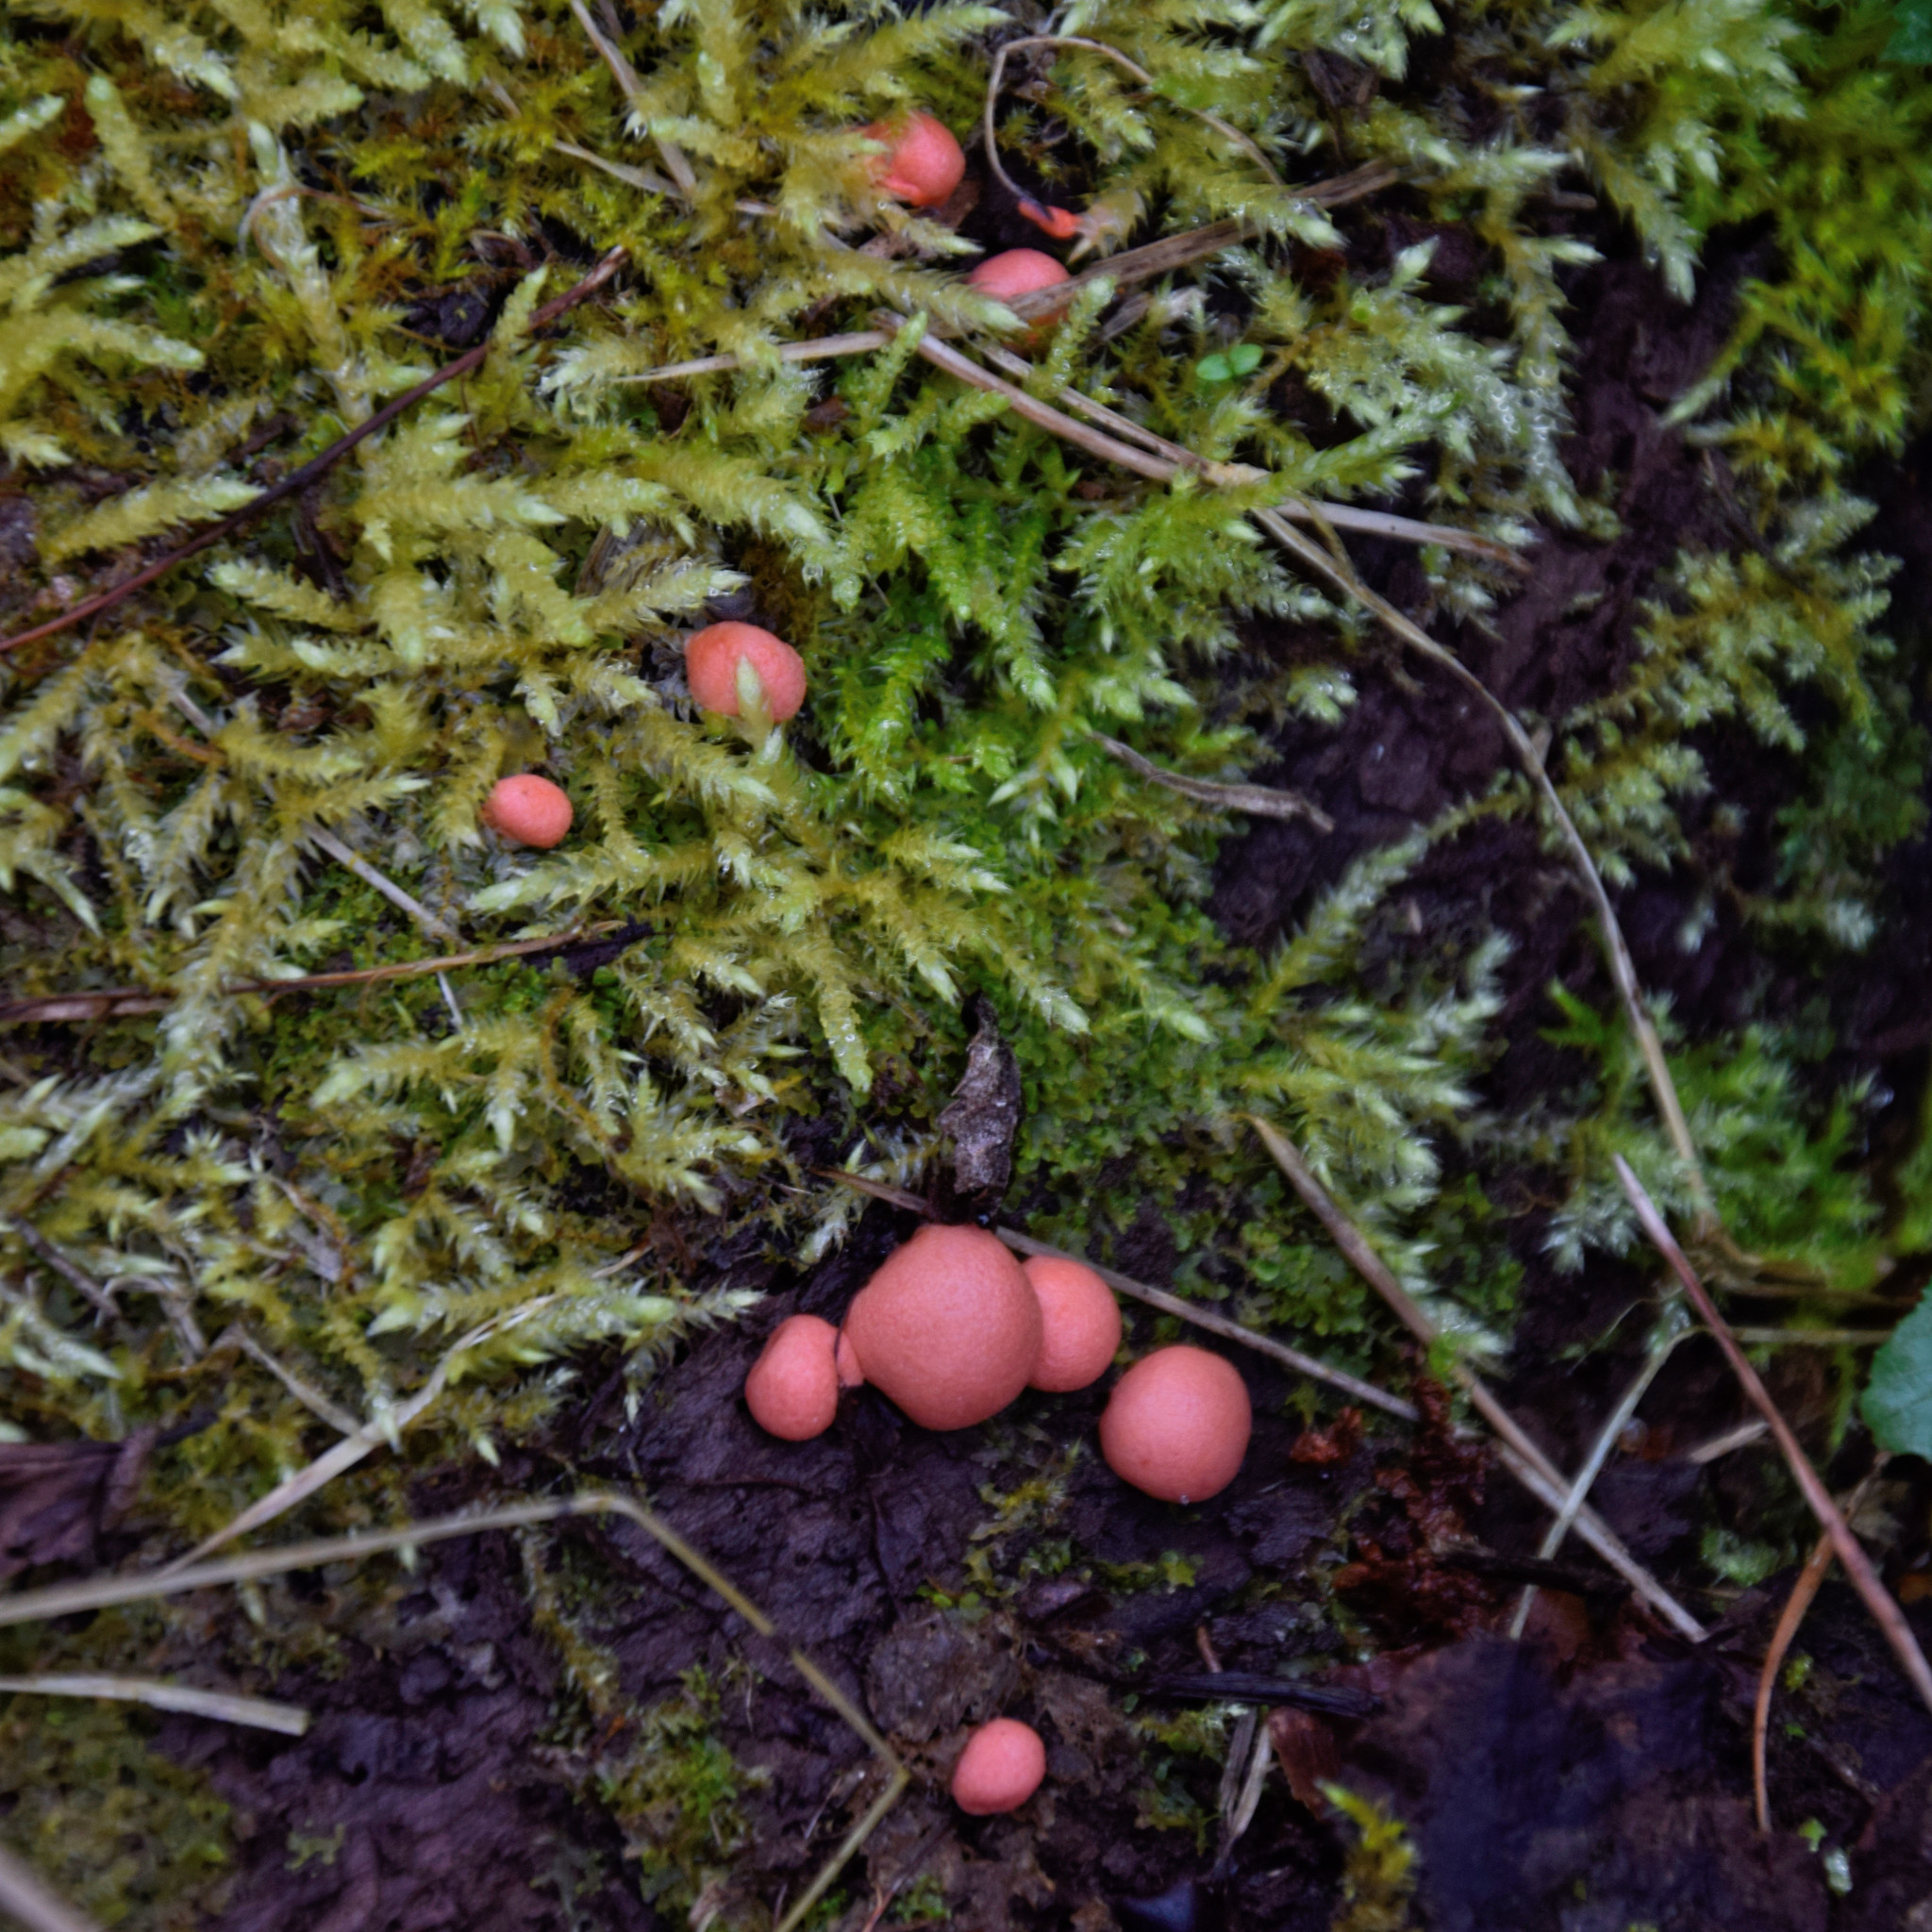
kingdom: Protozoa
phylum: Mycetozoa
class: Myxomycetes
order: Cribrariales
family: Tubiferaceae
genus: Lycogala
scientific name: Lycogala epidendrum
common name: Wolf's milk
